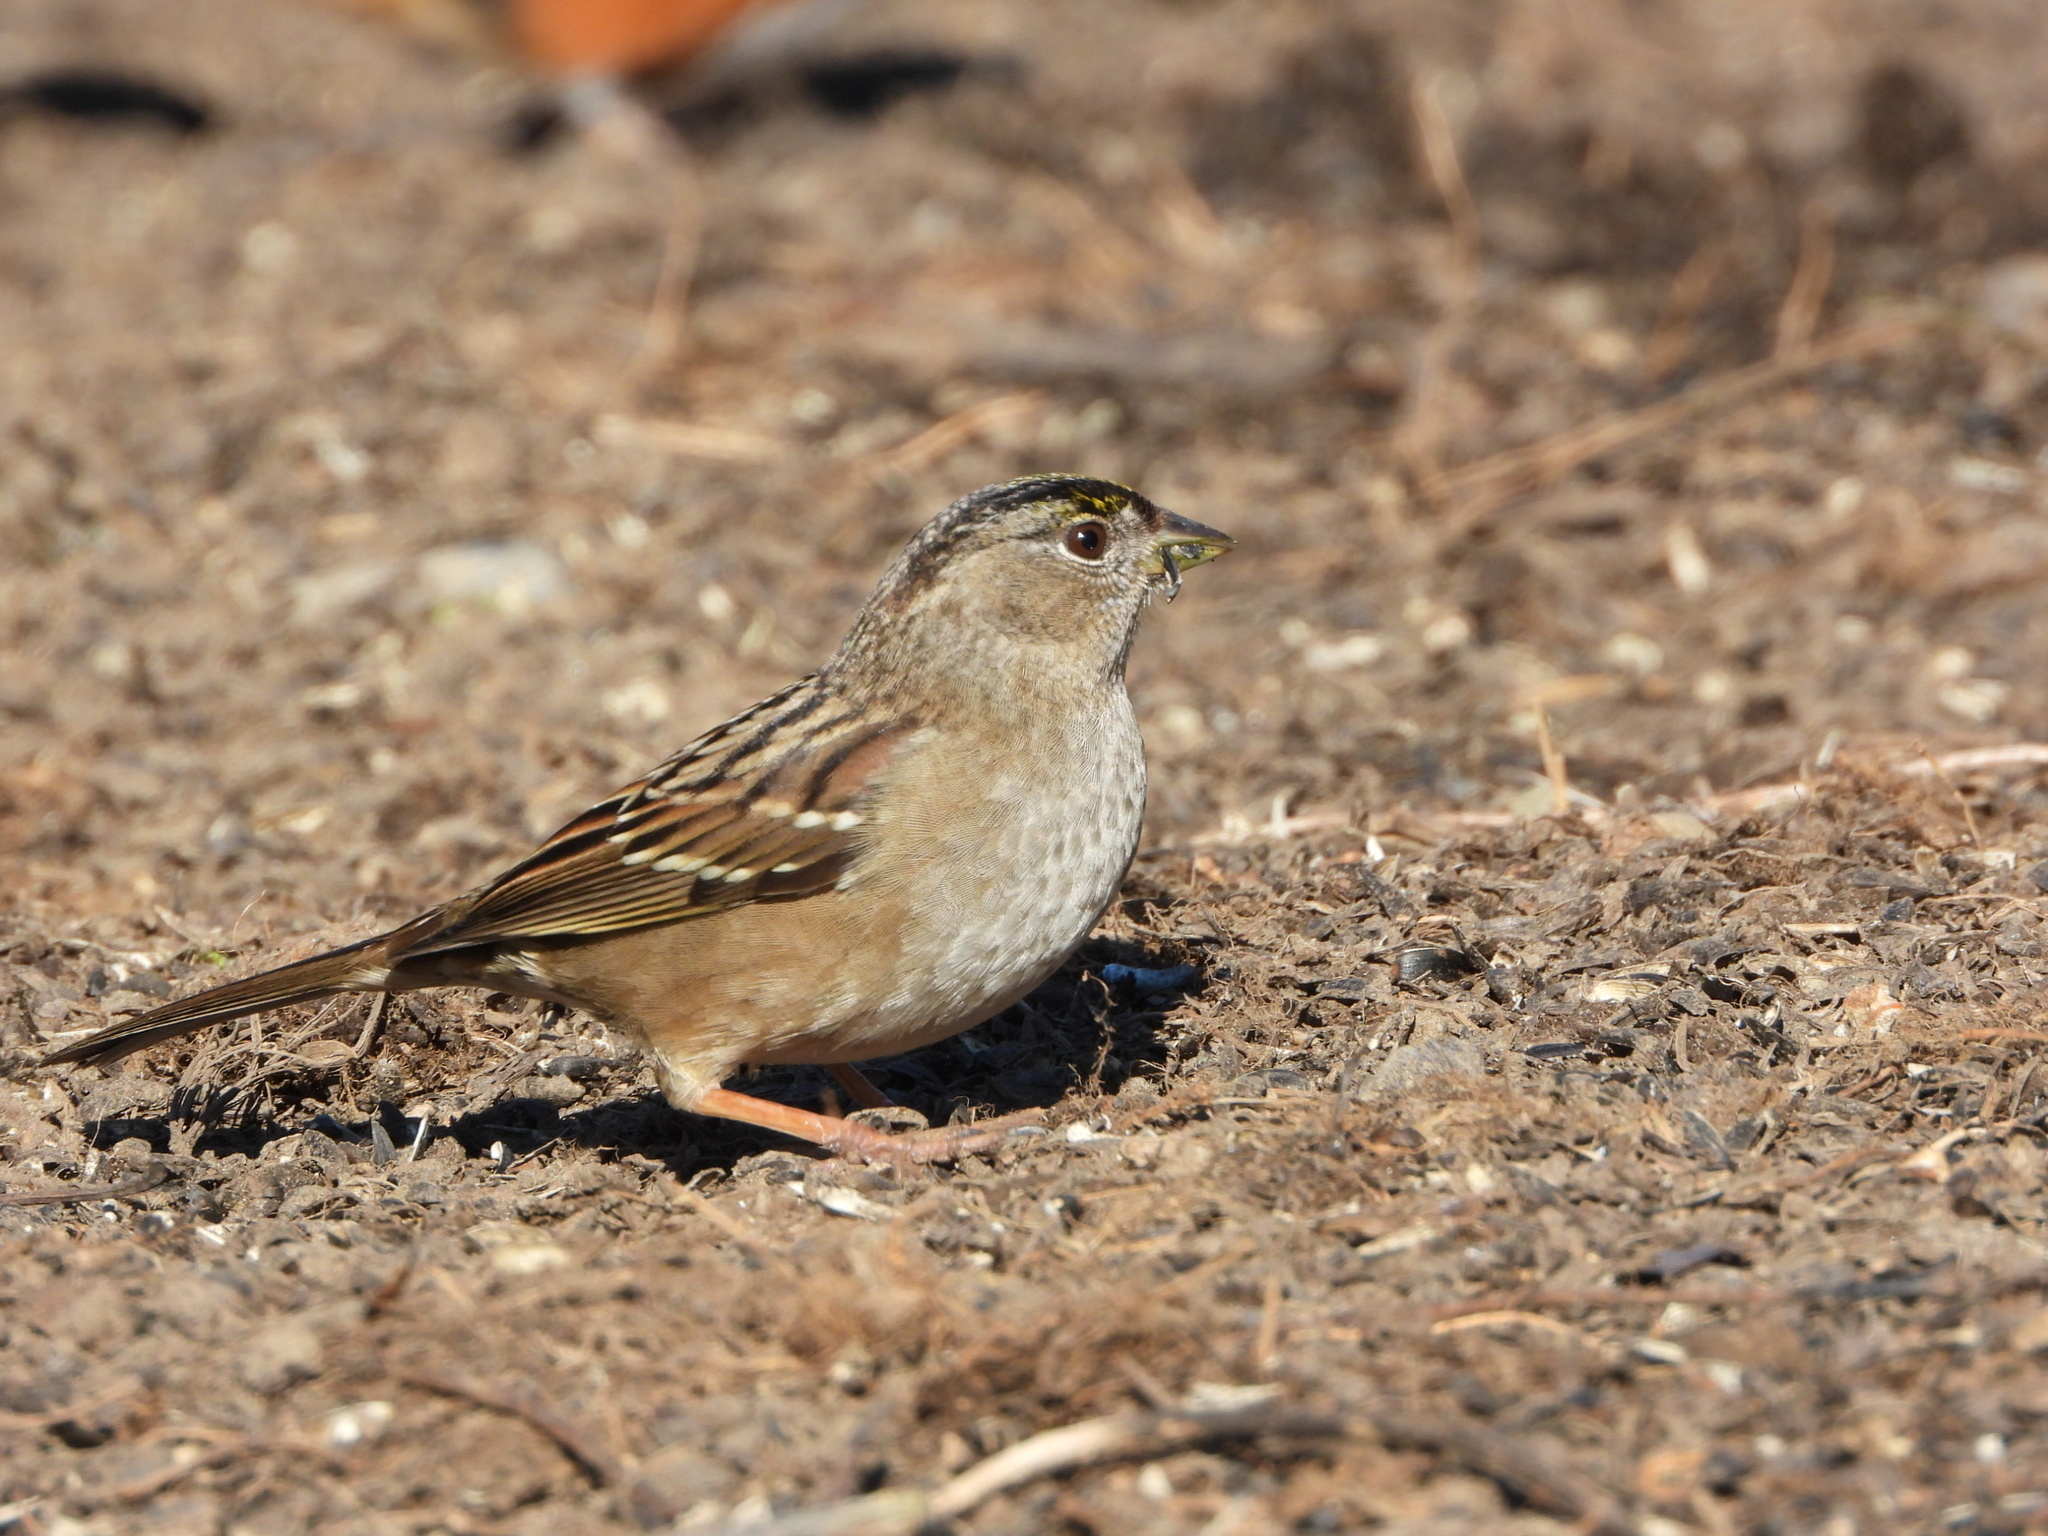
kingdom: Animalia
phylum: Chordata
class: Aves
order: Passeriformes
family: Passerellidae
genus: Zonotrichia
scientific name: Zonotrichia atricapilla
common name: Golden-crowned sparrow
